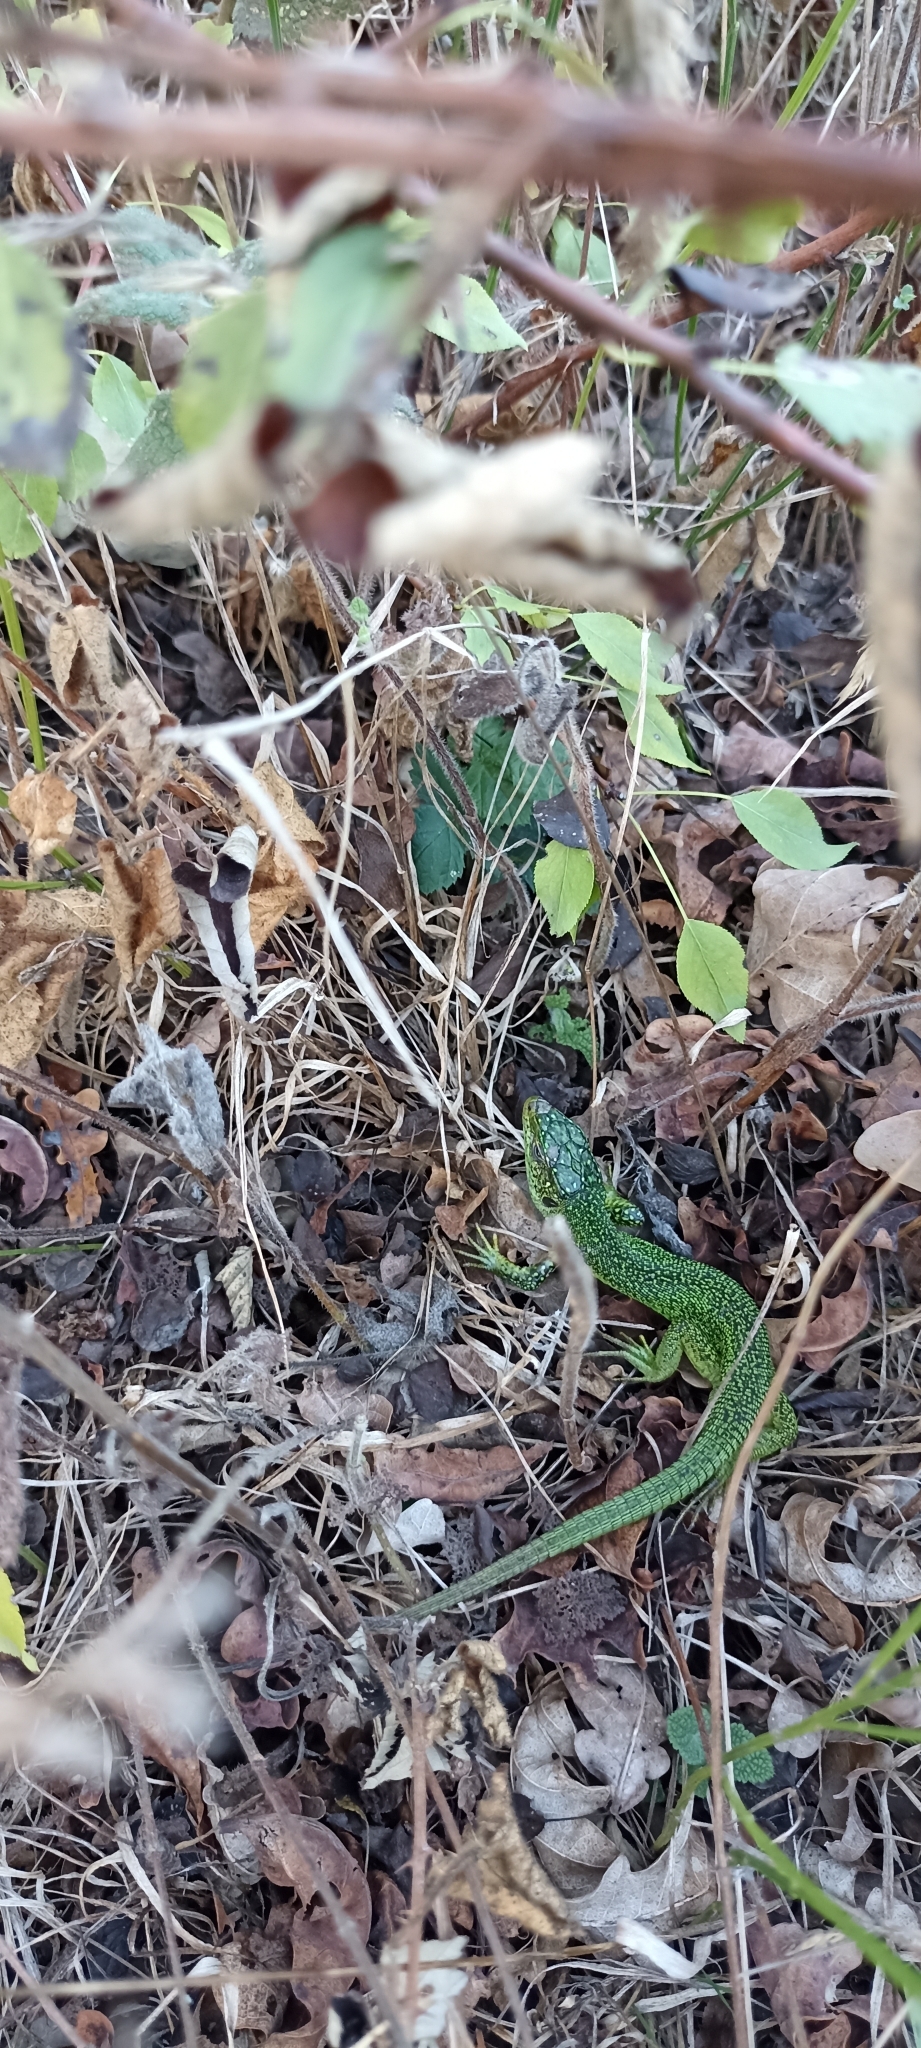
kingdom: Animalia
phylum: Chordata
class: Squamata
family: Lacertidae
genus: Lacerta
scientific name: Lacerta bilineata
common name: Western green lizard
